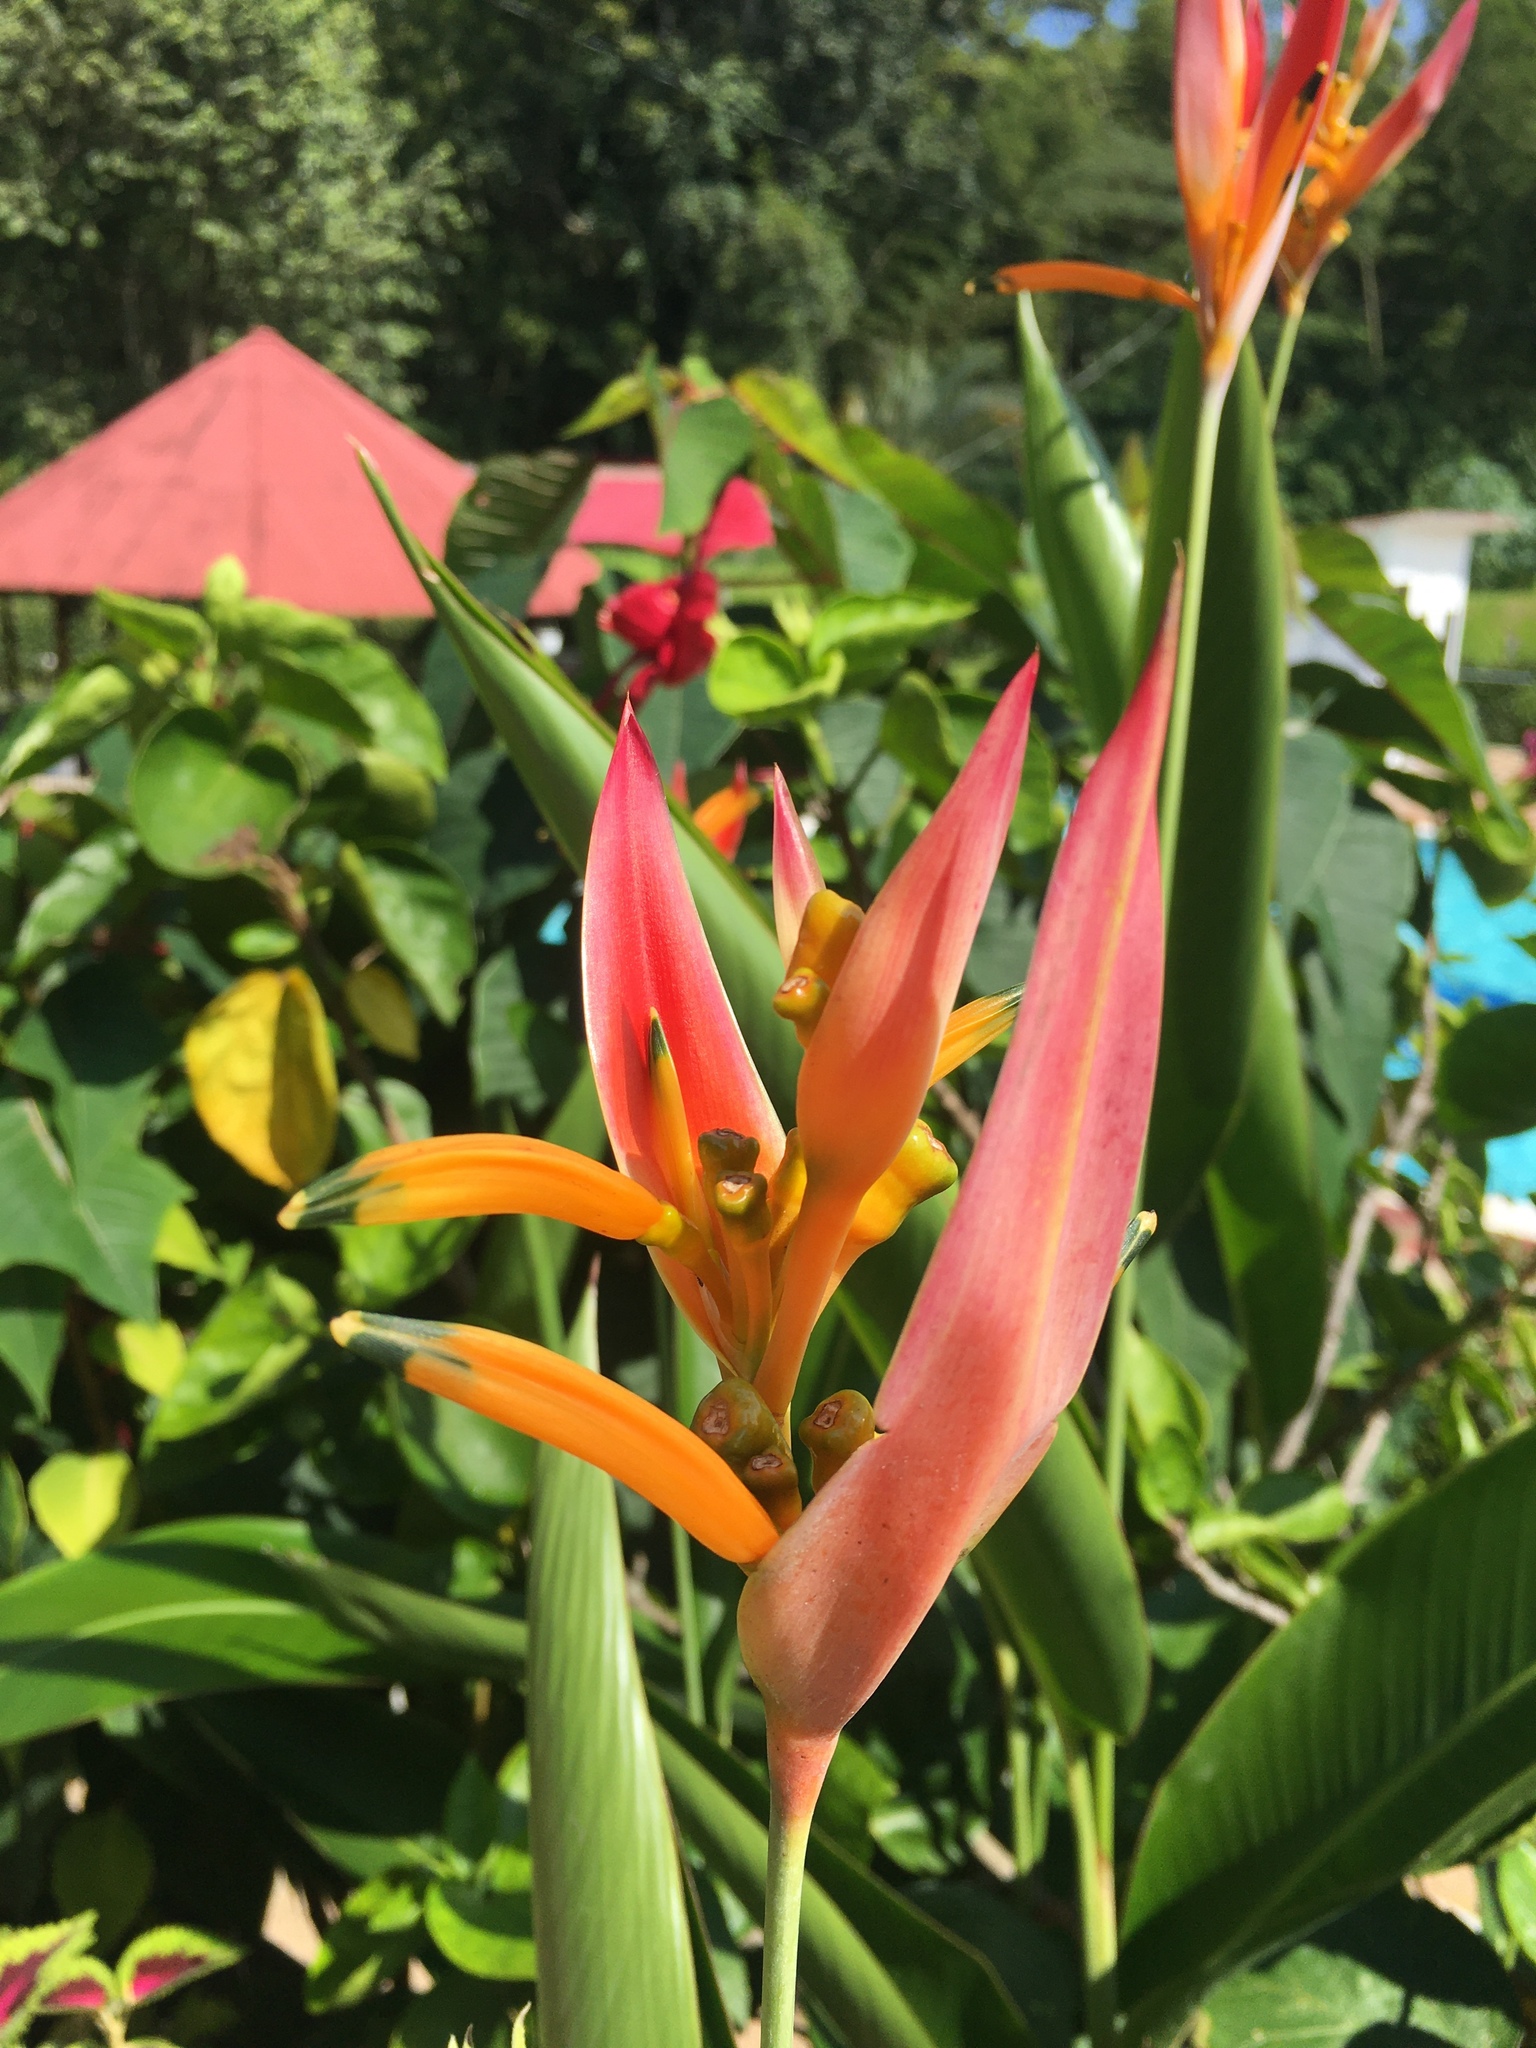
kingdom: Plantae
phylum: Tracheophyta
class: Liliopsida
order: Zingiberales
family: Heliconiaceae
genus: Heliconia
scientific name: Heliconia psittacorum
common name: Parrot's-flower
